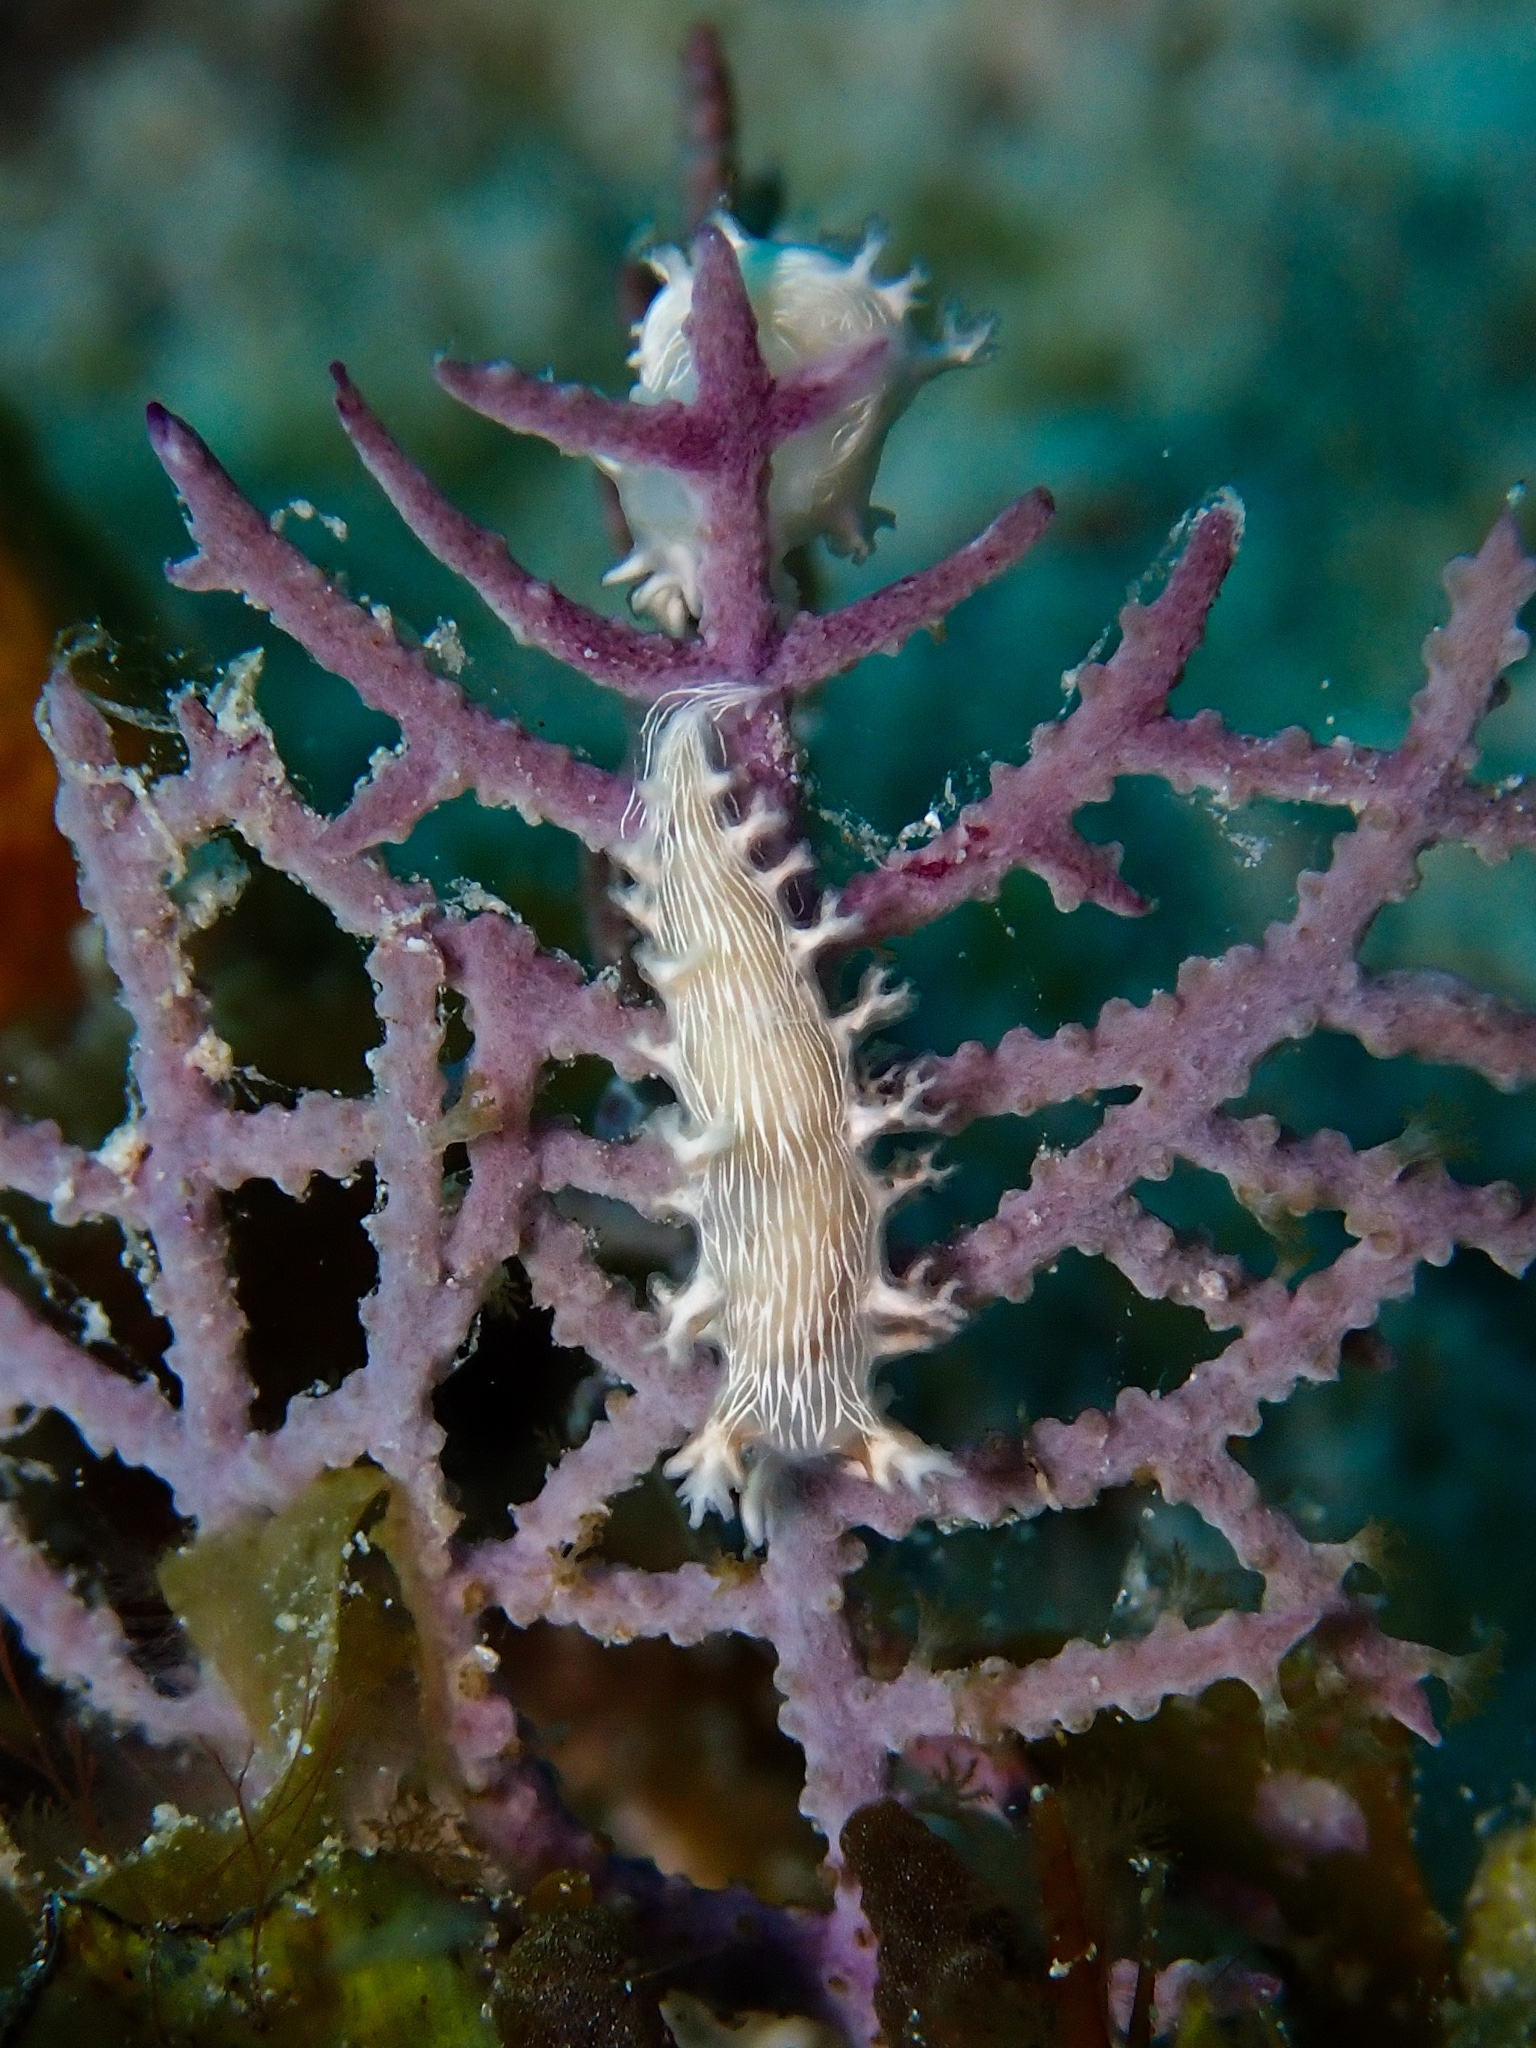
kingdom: Animalia
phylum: Mollusca
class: Gastropoda
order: Nudibranchia
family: Tritoniidae
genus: Tritonicula
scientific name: Tritonicula hamnerorum
